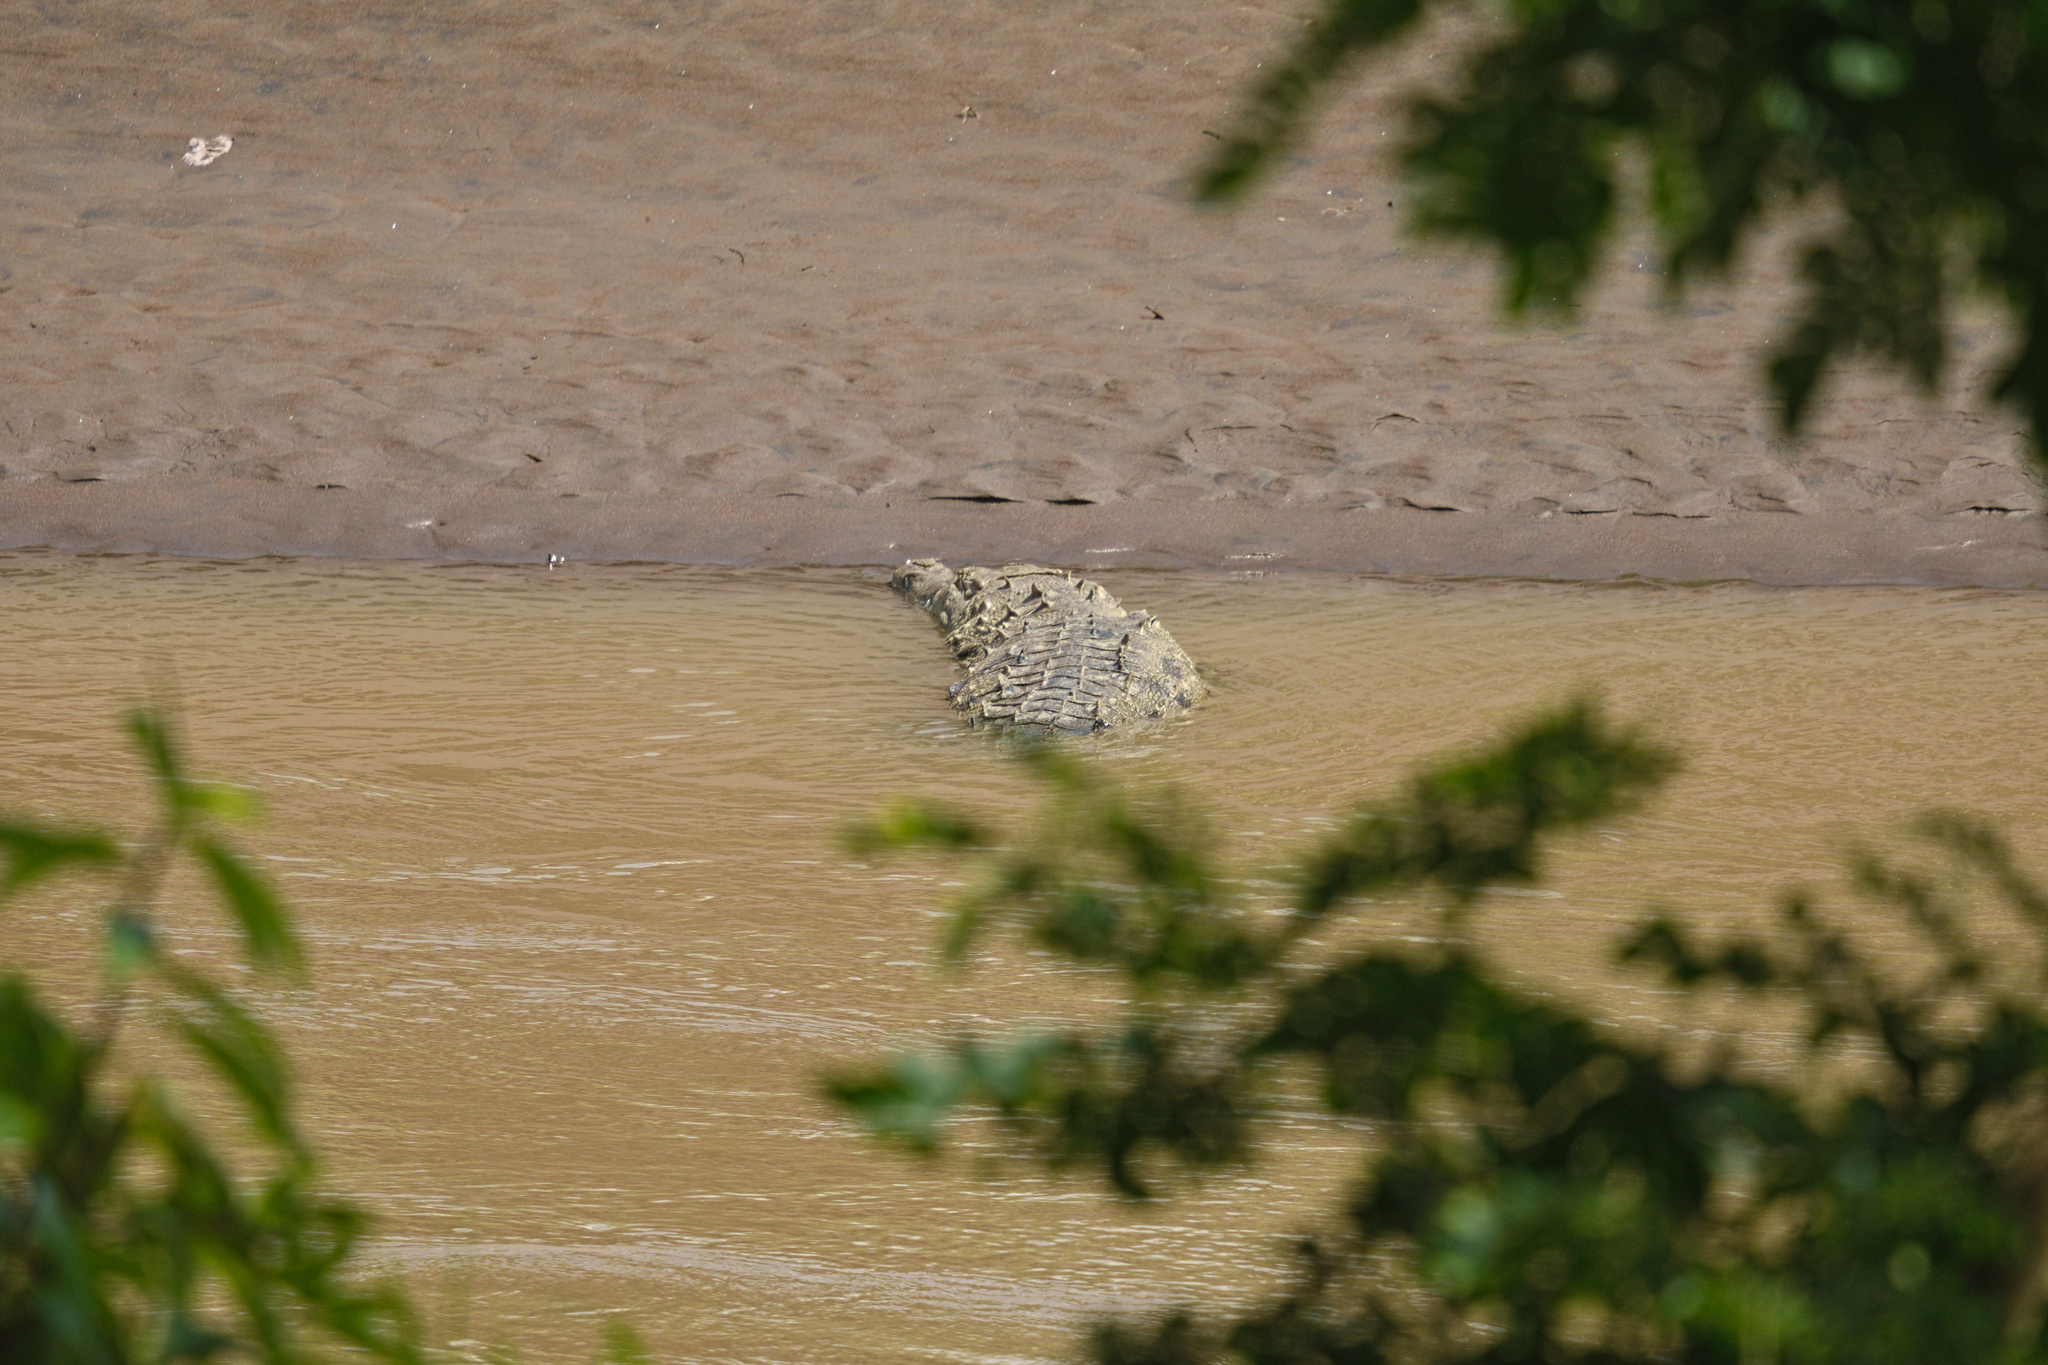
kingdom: Animalia
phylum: Chordata
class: Crocodylia
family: Crocodylidae
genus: Crocodylus
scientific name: Crocodylus acutus
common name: American crocodile
